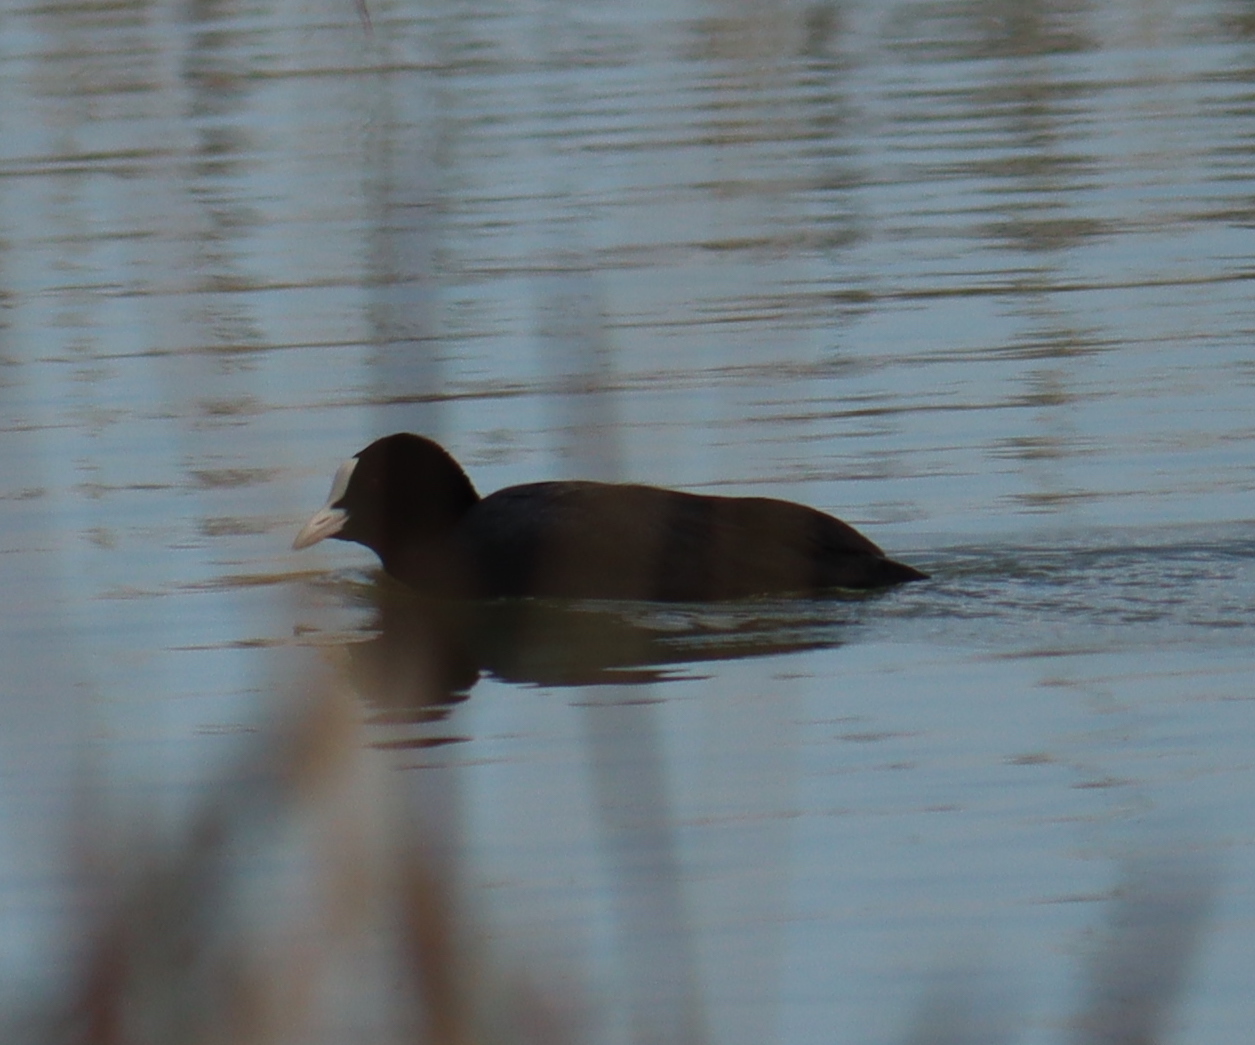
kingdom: Animalia
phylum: Chordata
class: Aves
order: Gruiformes
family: Rallidae
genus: Fulica
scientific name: Fulica atra
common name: Eurasian coot
